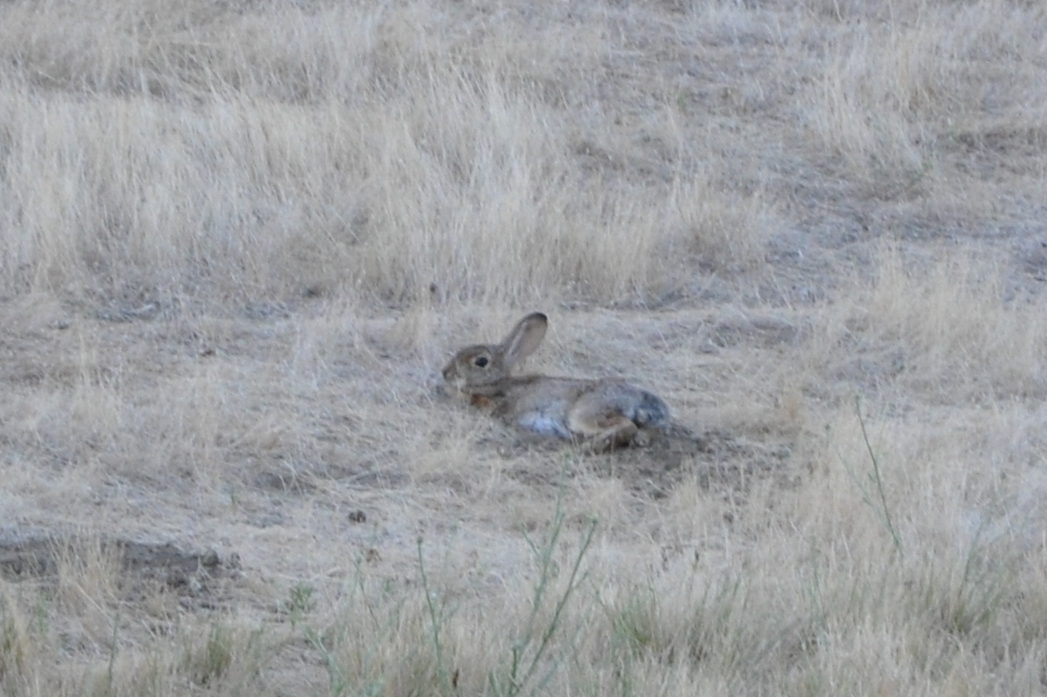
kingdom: Animalia
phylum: Chordata
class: Mammalia
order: Lagomorpha
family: Leporidae
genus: Sylvilagus
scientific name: Sylvilagus audubonii
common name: Desert cottontail
